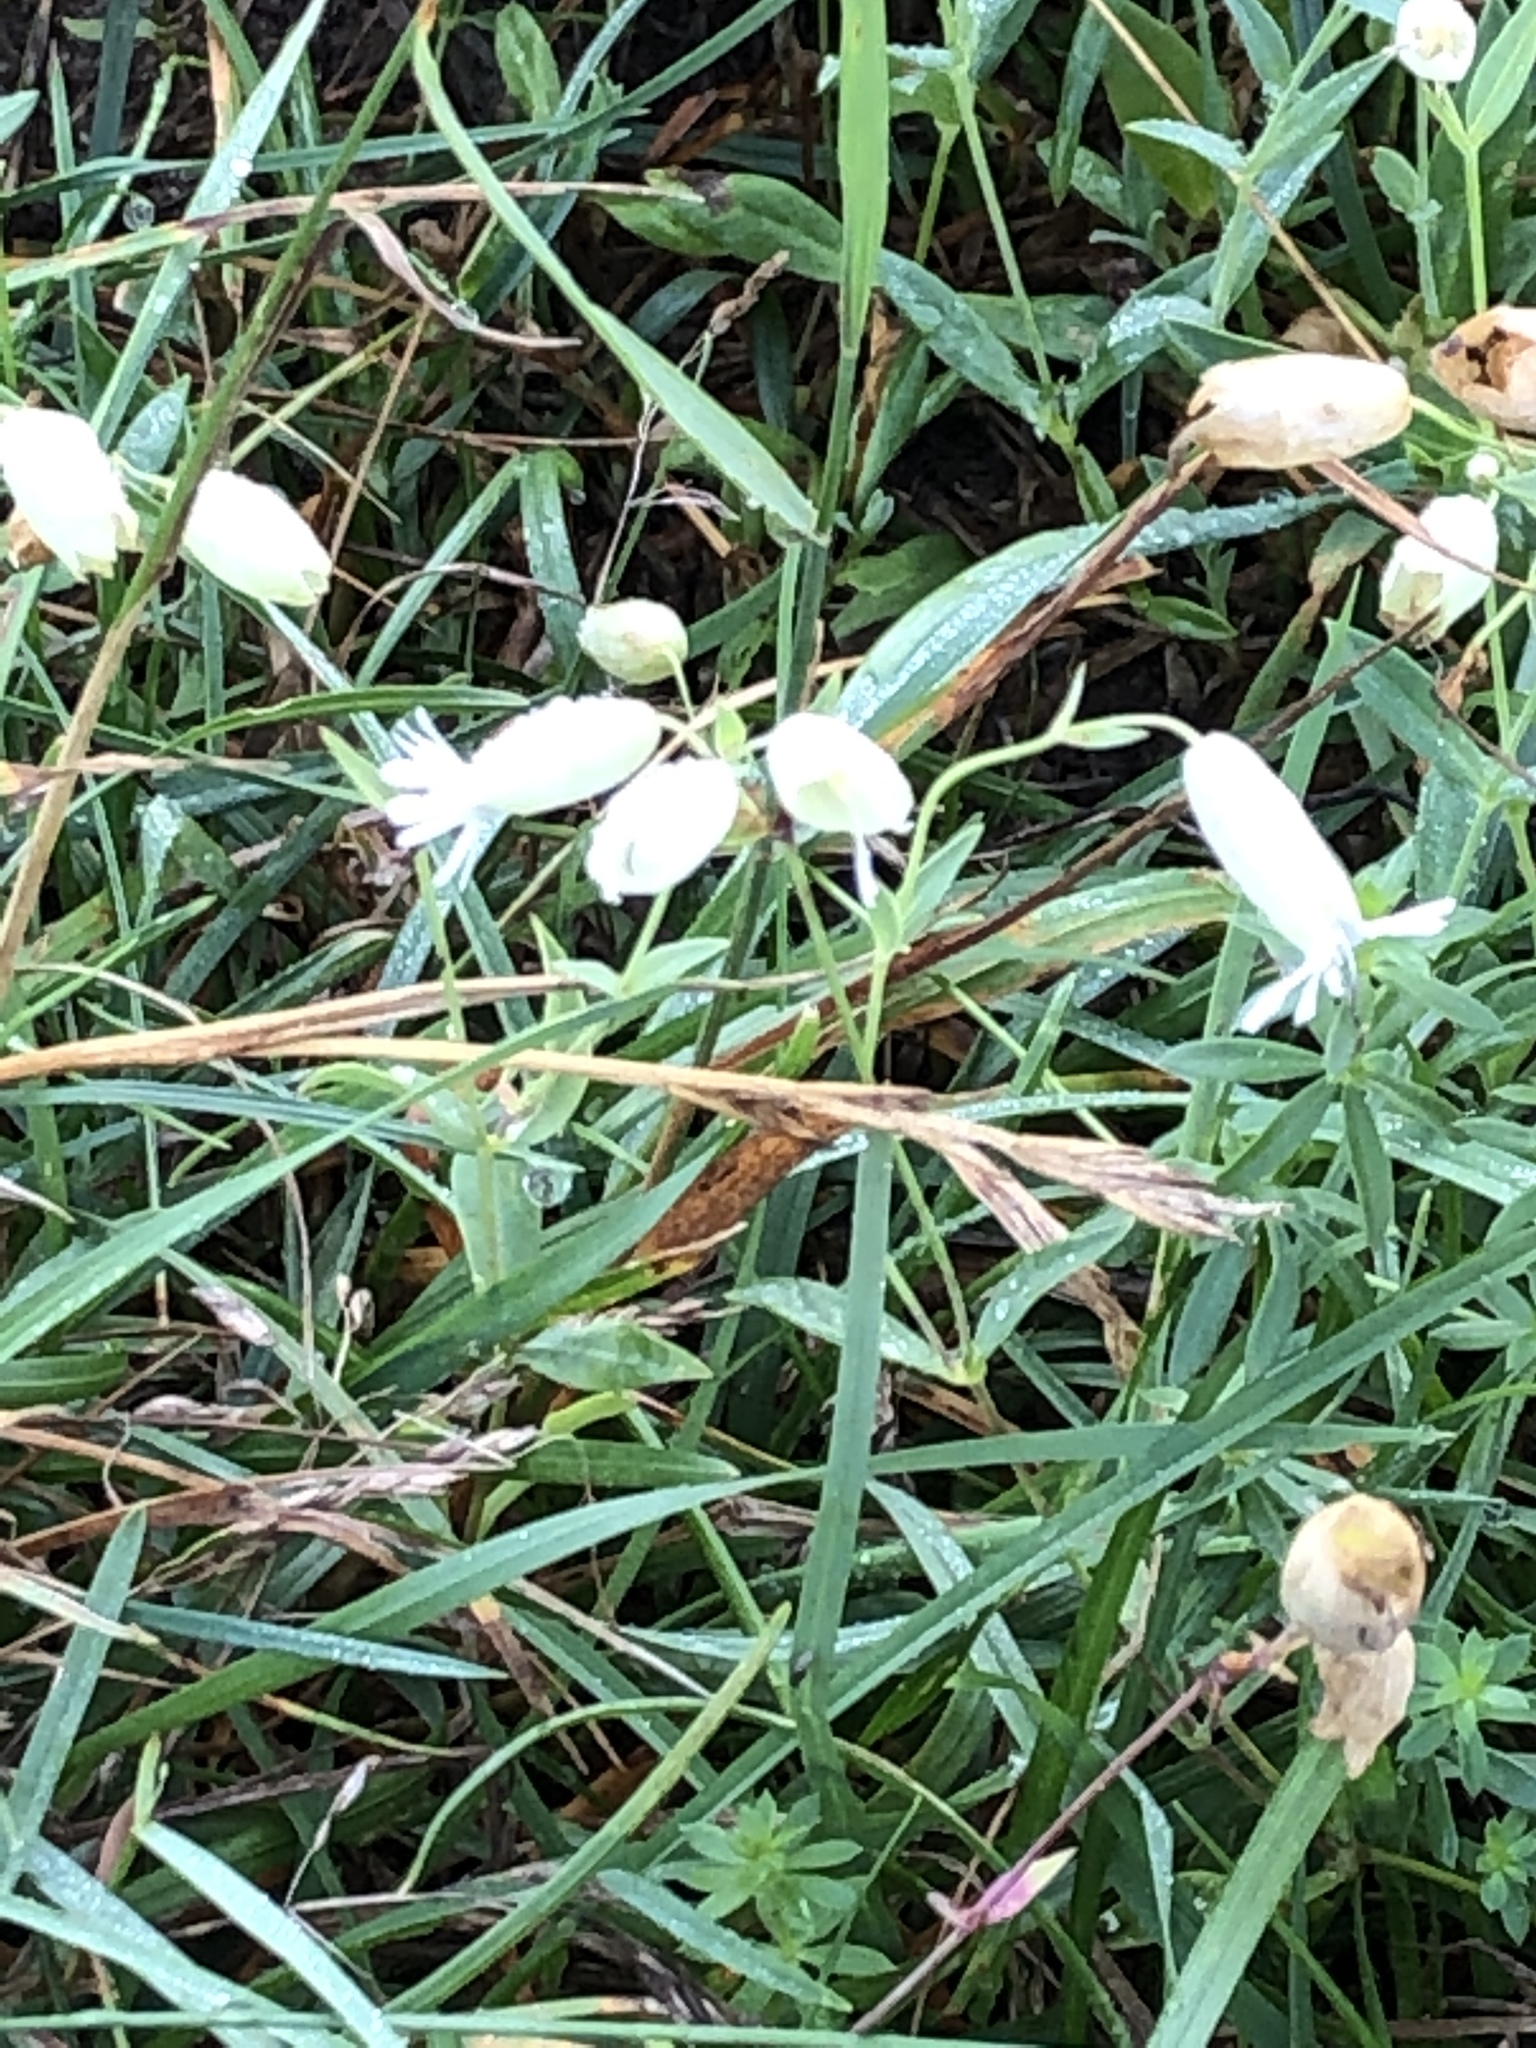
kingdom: Plantae
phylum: Tracheophyta
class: Magnoliopsida
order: Caryophyllales
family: Caryophyllaceae
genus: Silene
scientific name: Silene vulgaris
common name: Bladder campion
